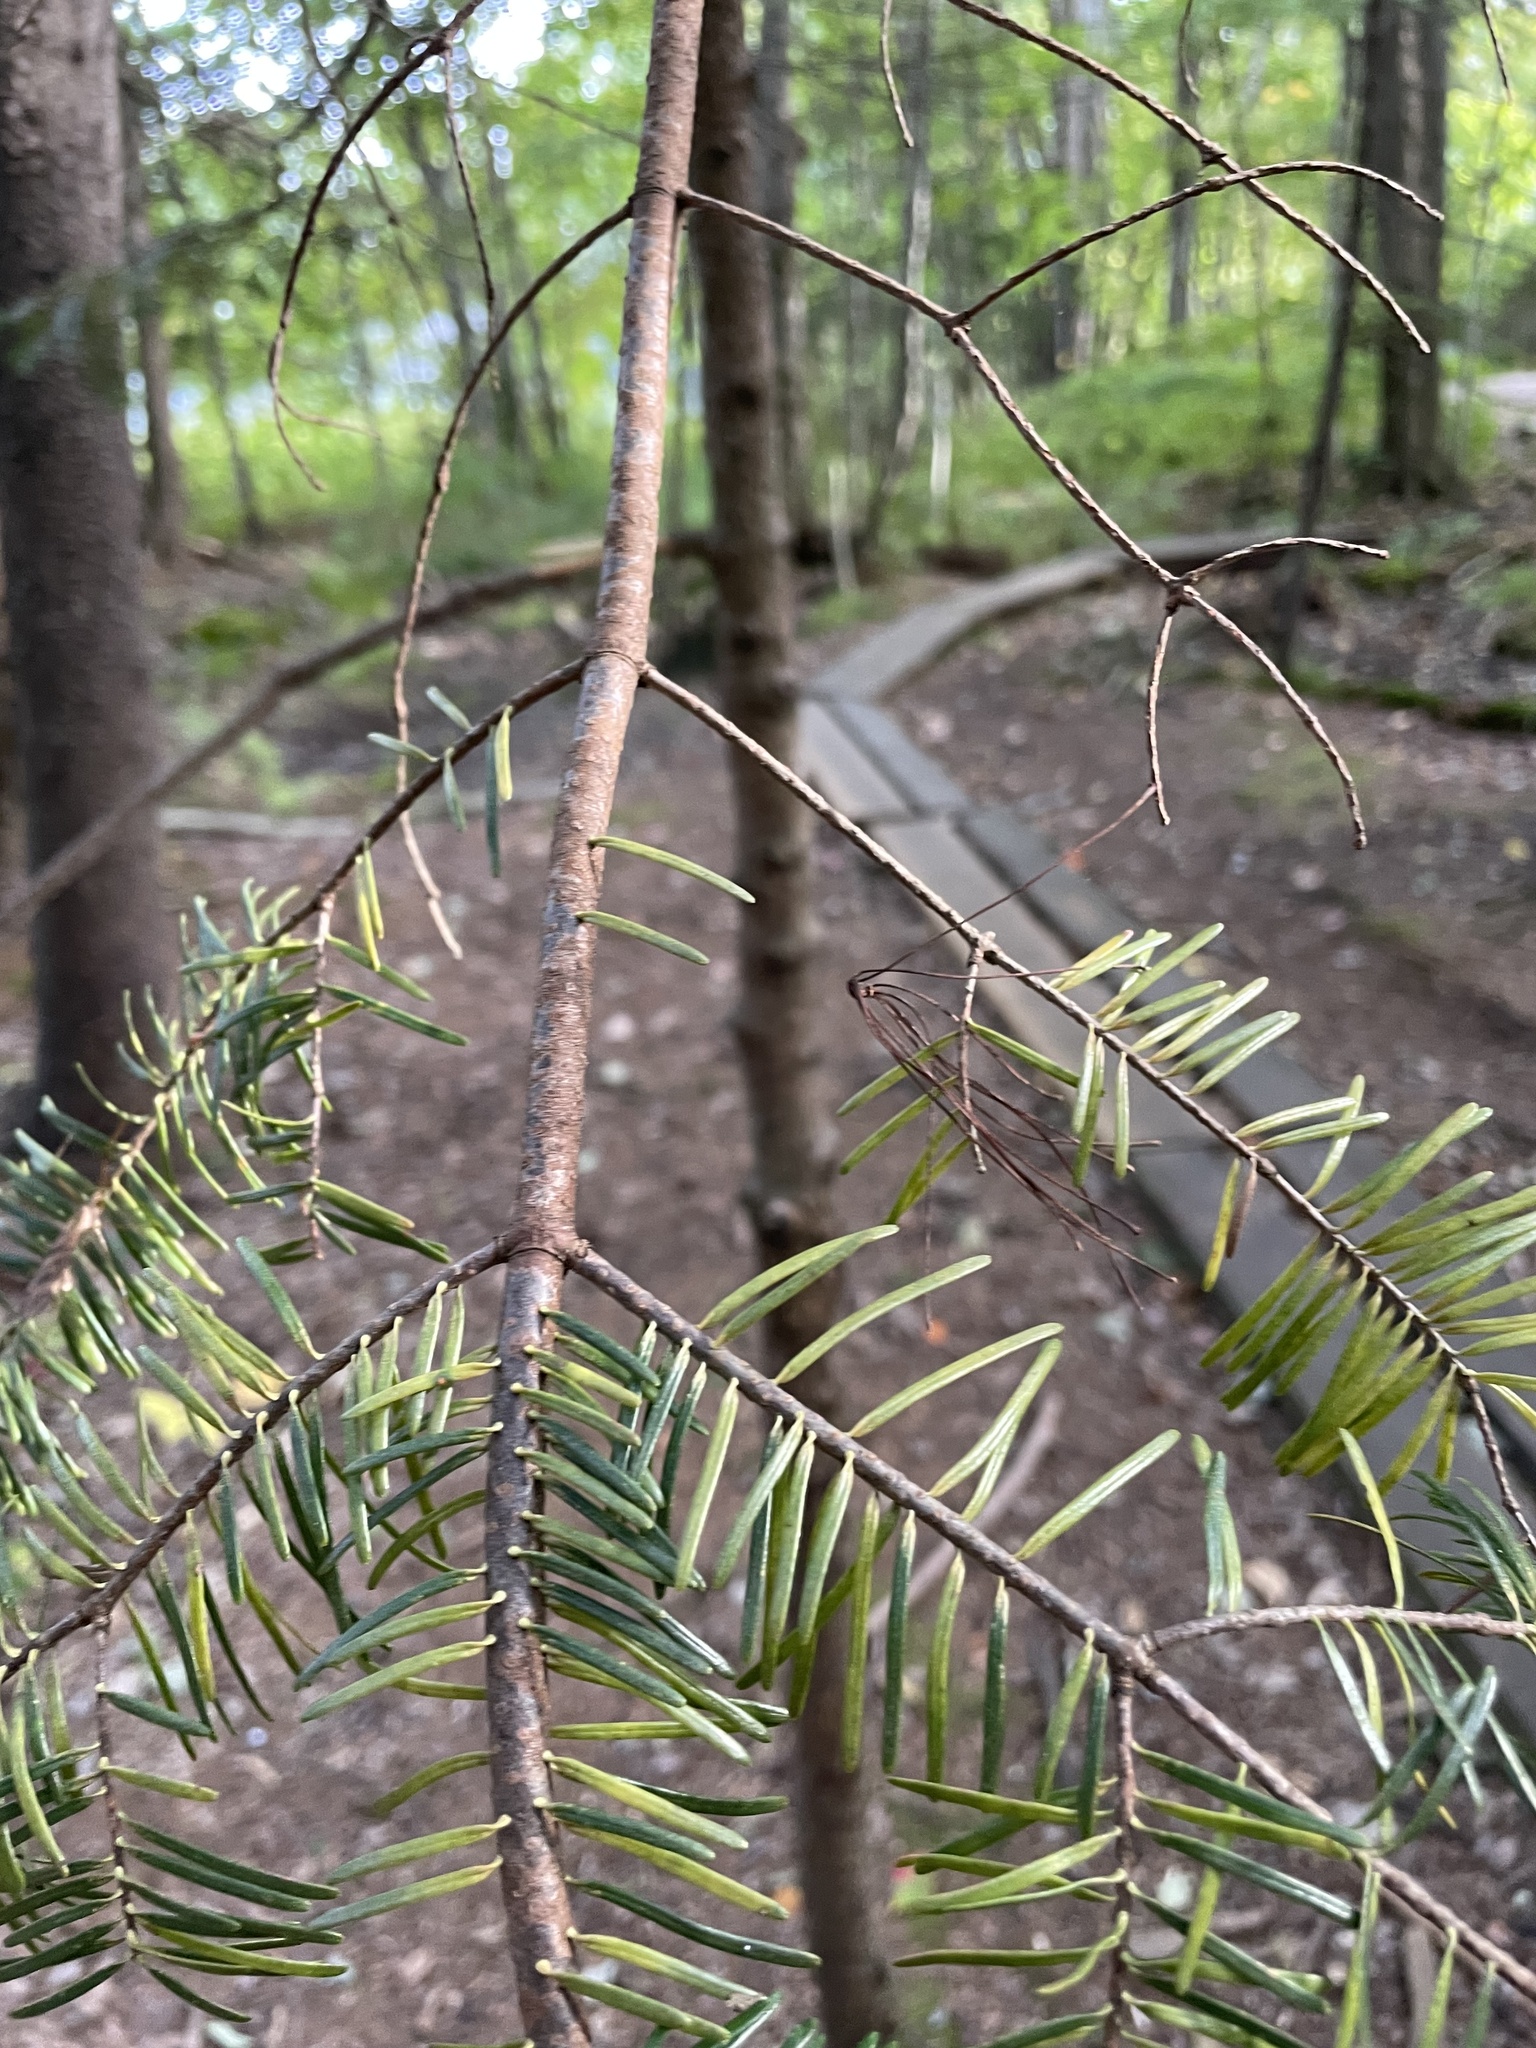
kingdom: Plantae
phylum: Tracheophyta
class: Pinopsida
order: Pinales
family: Pinaceae
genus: Abies
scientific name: Abies balsamea
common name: Balsam fir
